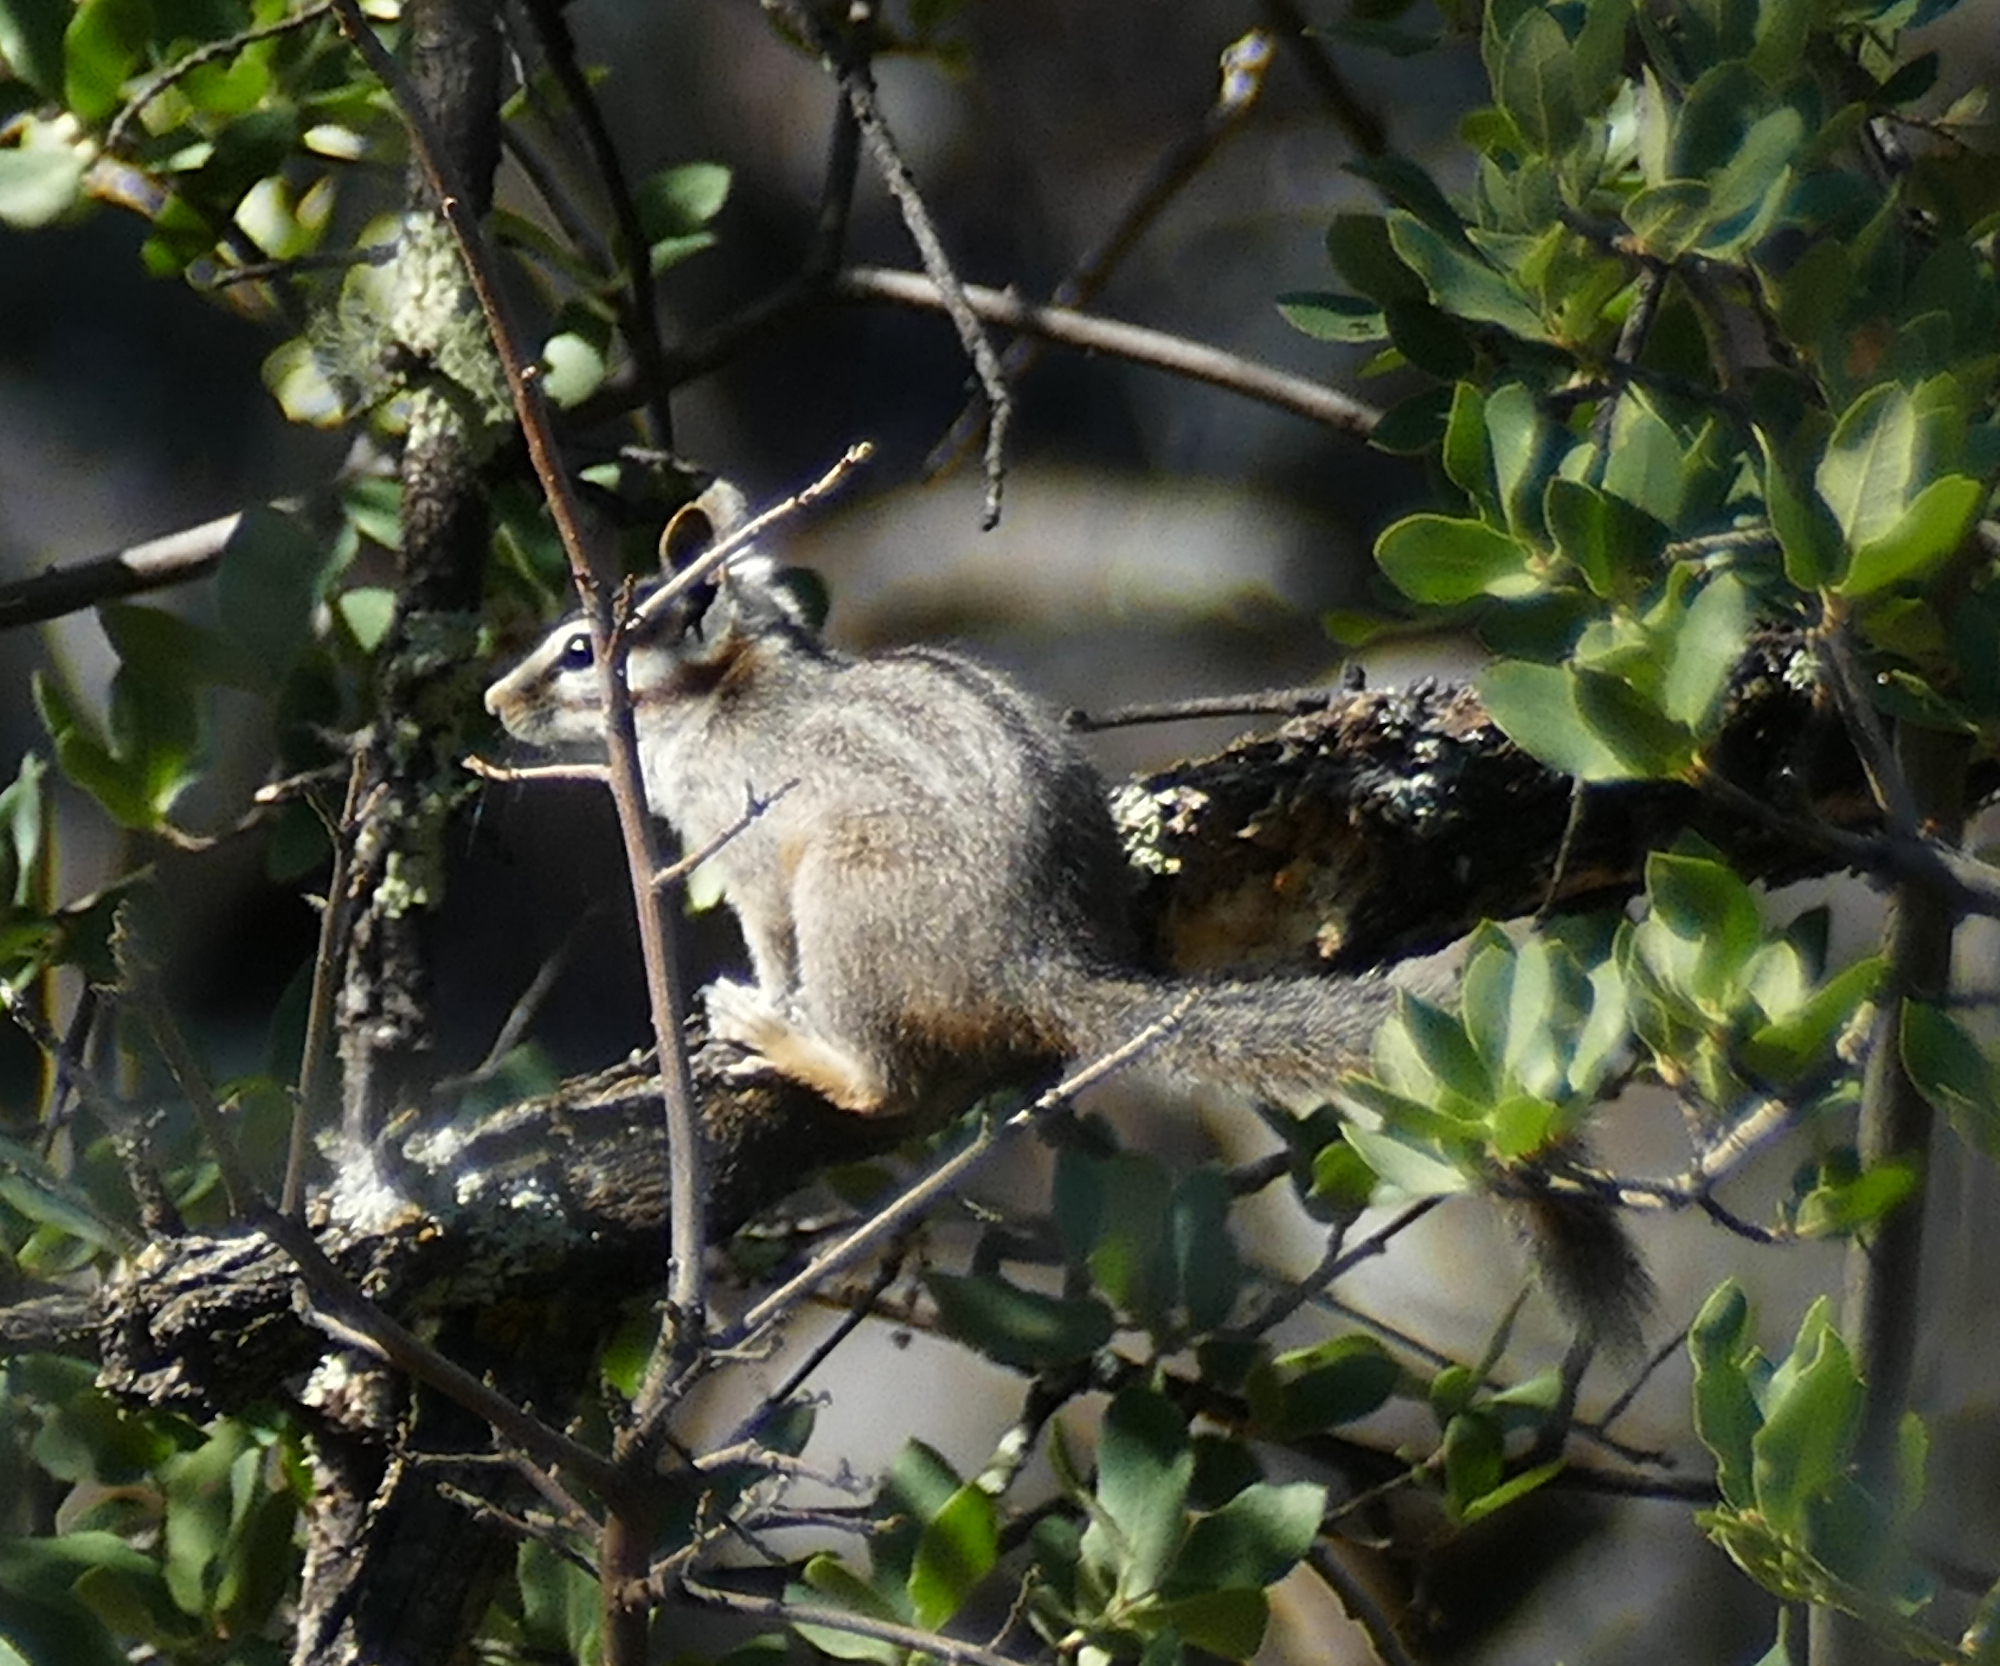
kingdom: Animalia
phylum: Chordata
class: Mammalia
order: Rodentia
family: Sciuridae
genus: Tamias
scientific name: Tamias dorsalis
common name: Cliff chipmunk
